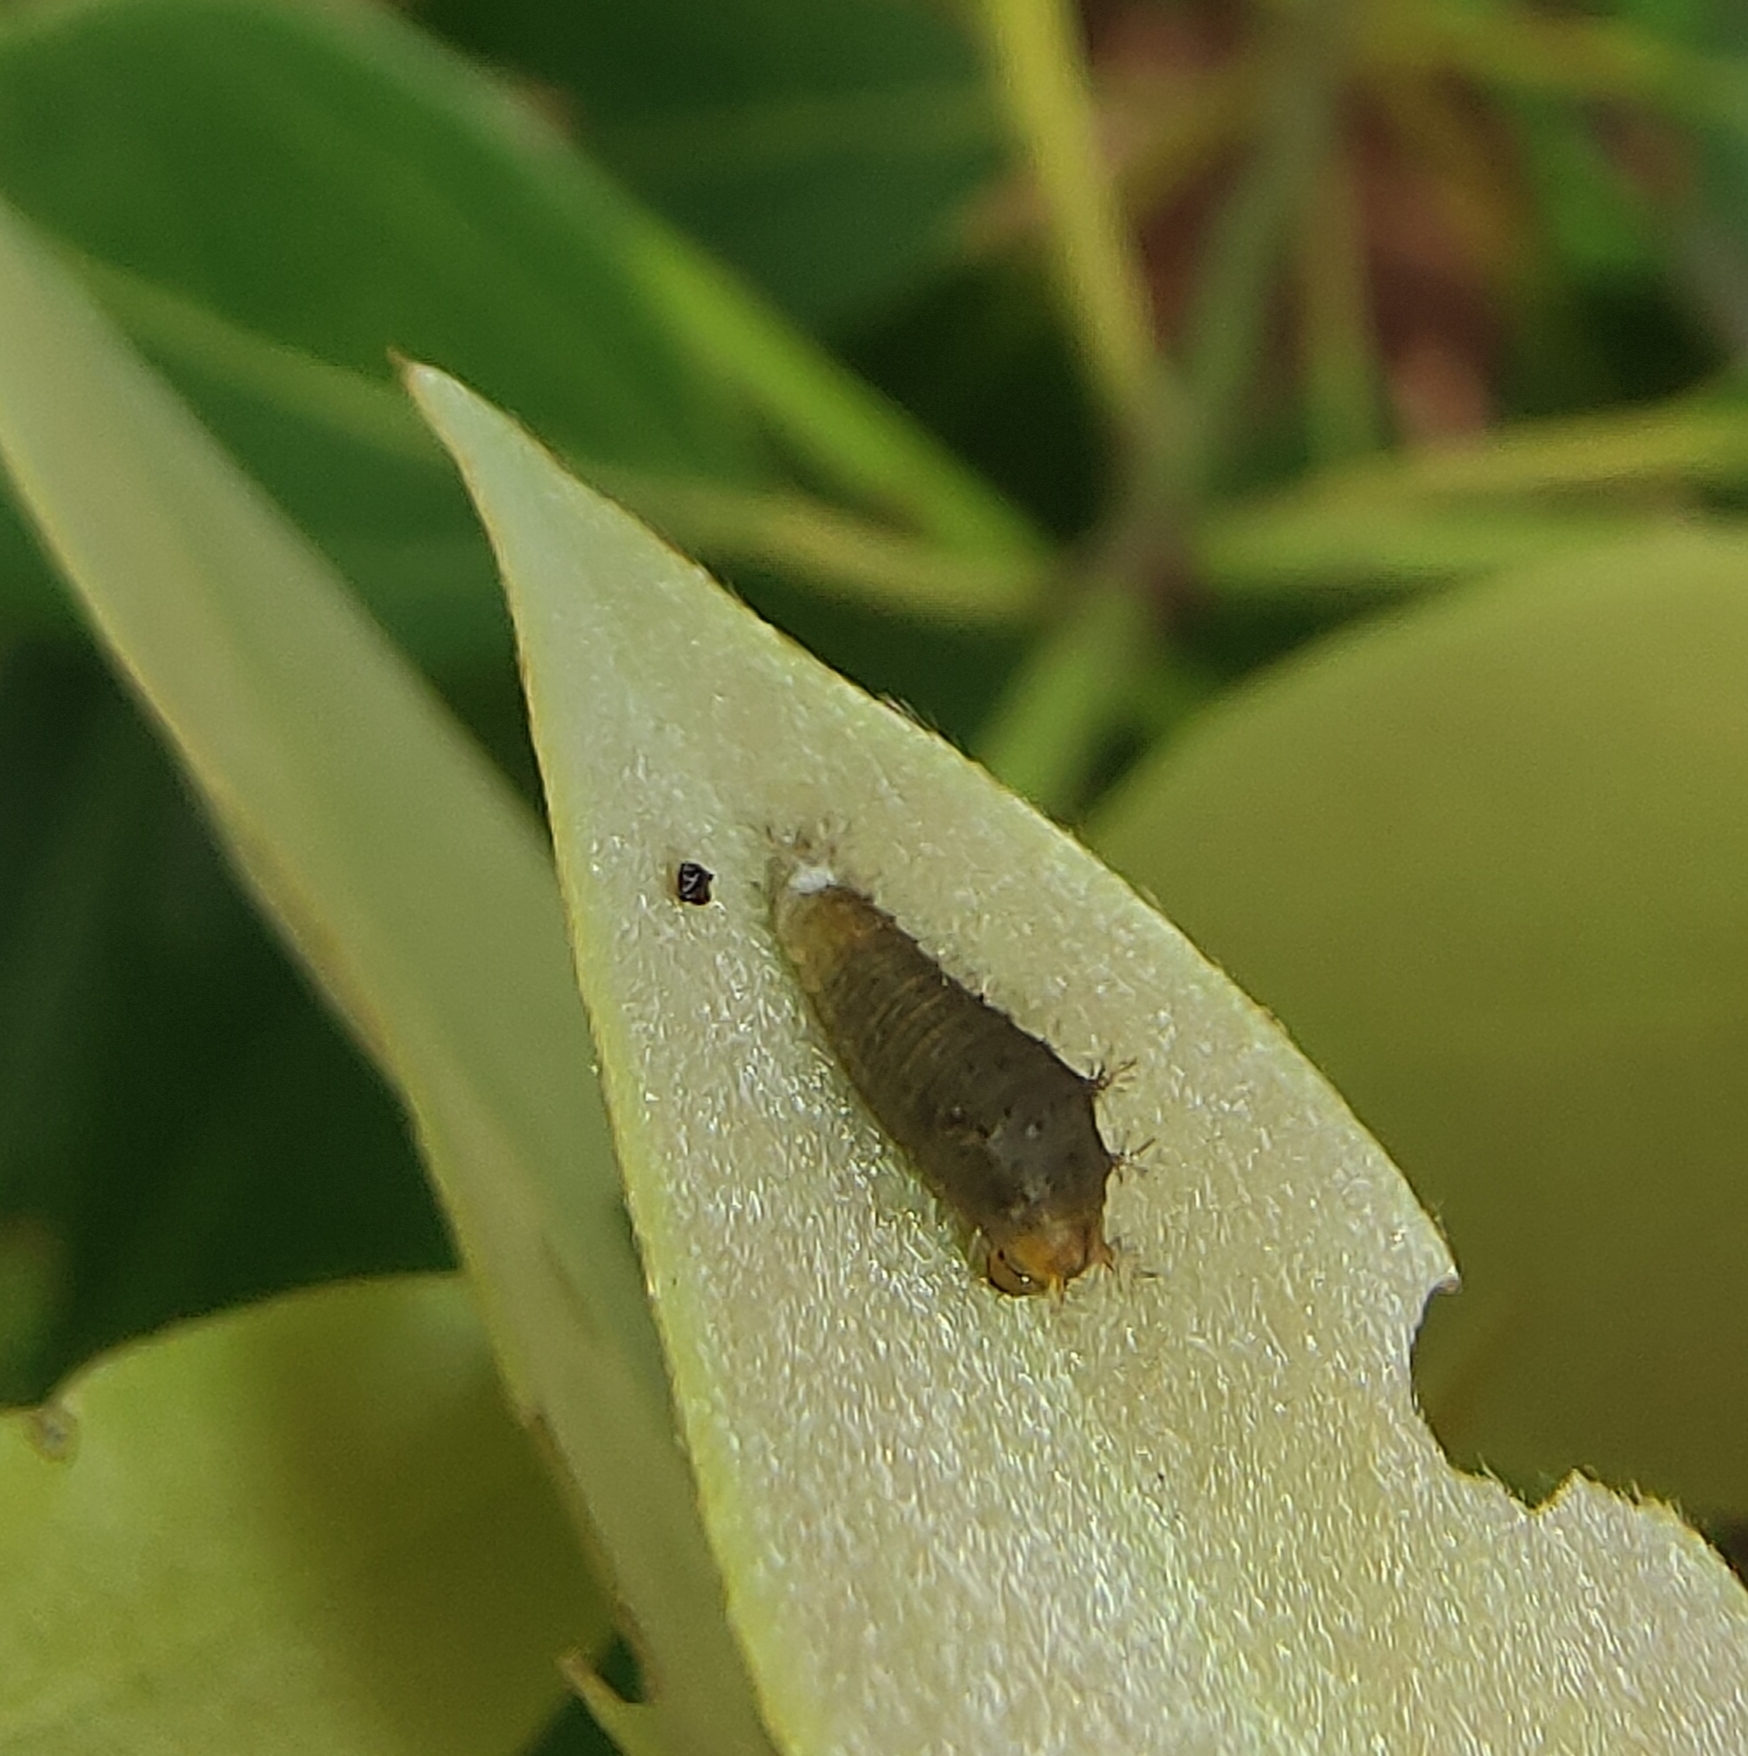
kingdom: Fungi
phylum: Ascomycota
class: Sordariomycetes
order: Microascales
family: Microascaceae
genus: Graphium
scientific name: Graphium sarpedon
